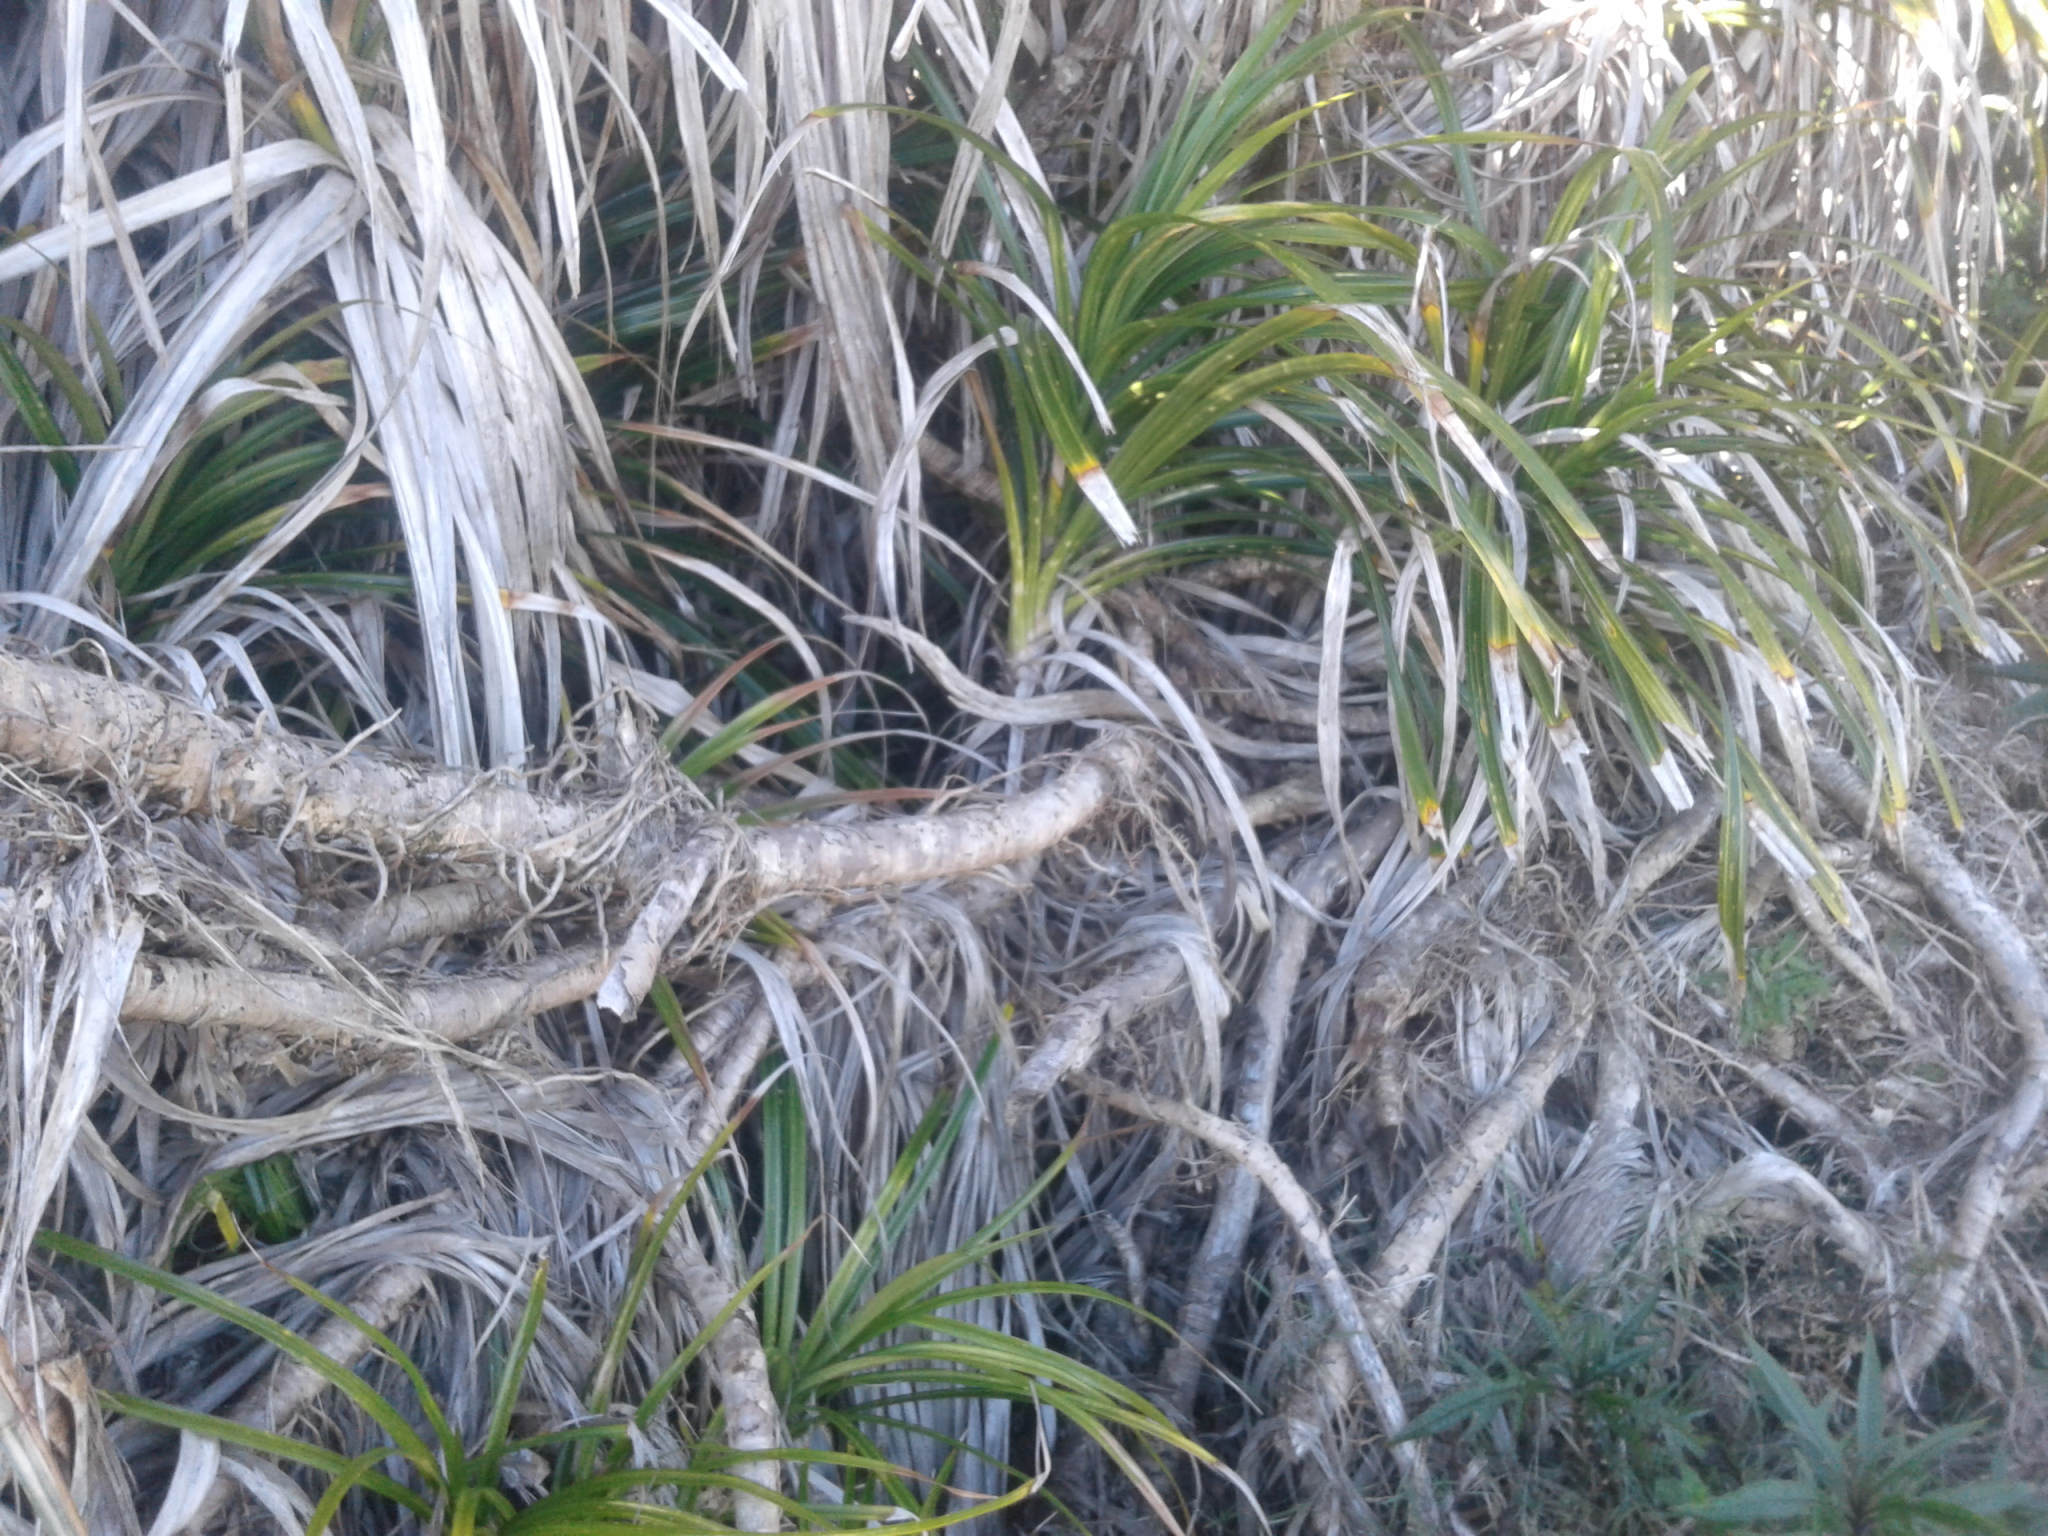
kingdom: Plantae
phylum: Tracheophyta
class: Liliopsida
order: Pandanales
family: Pandanaceae
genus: Freycinetia
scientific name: Freycinetia banksii
